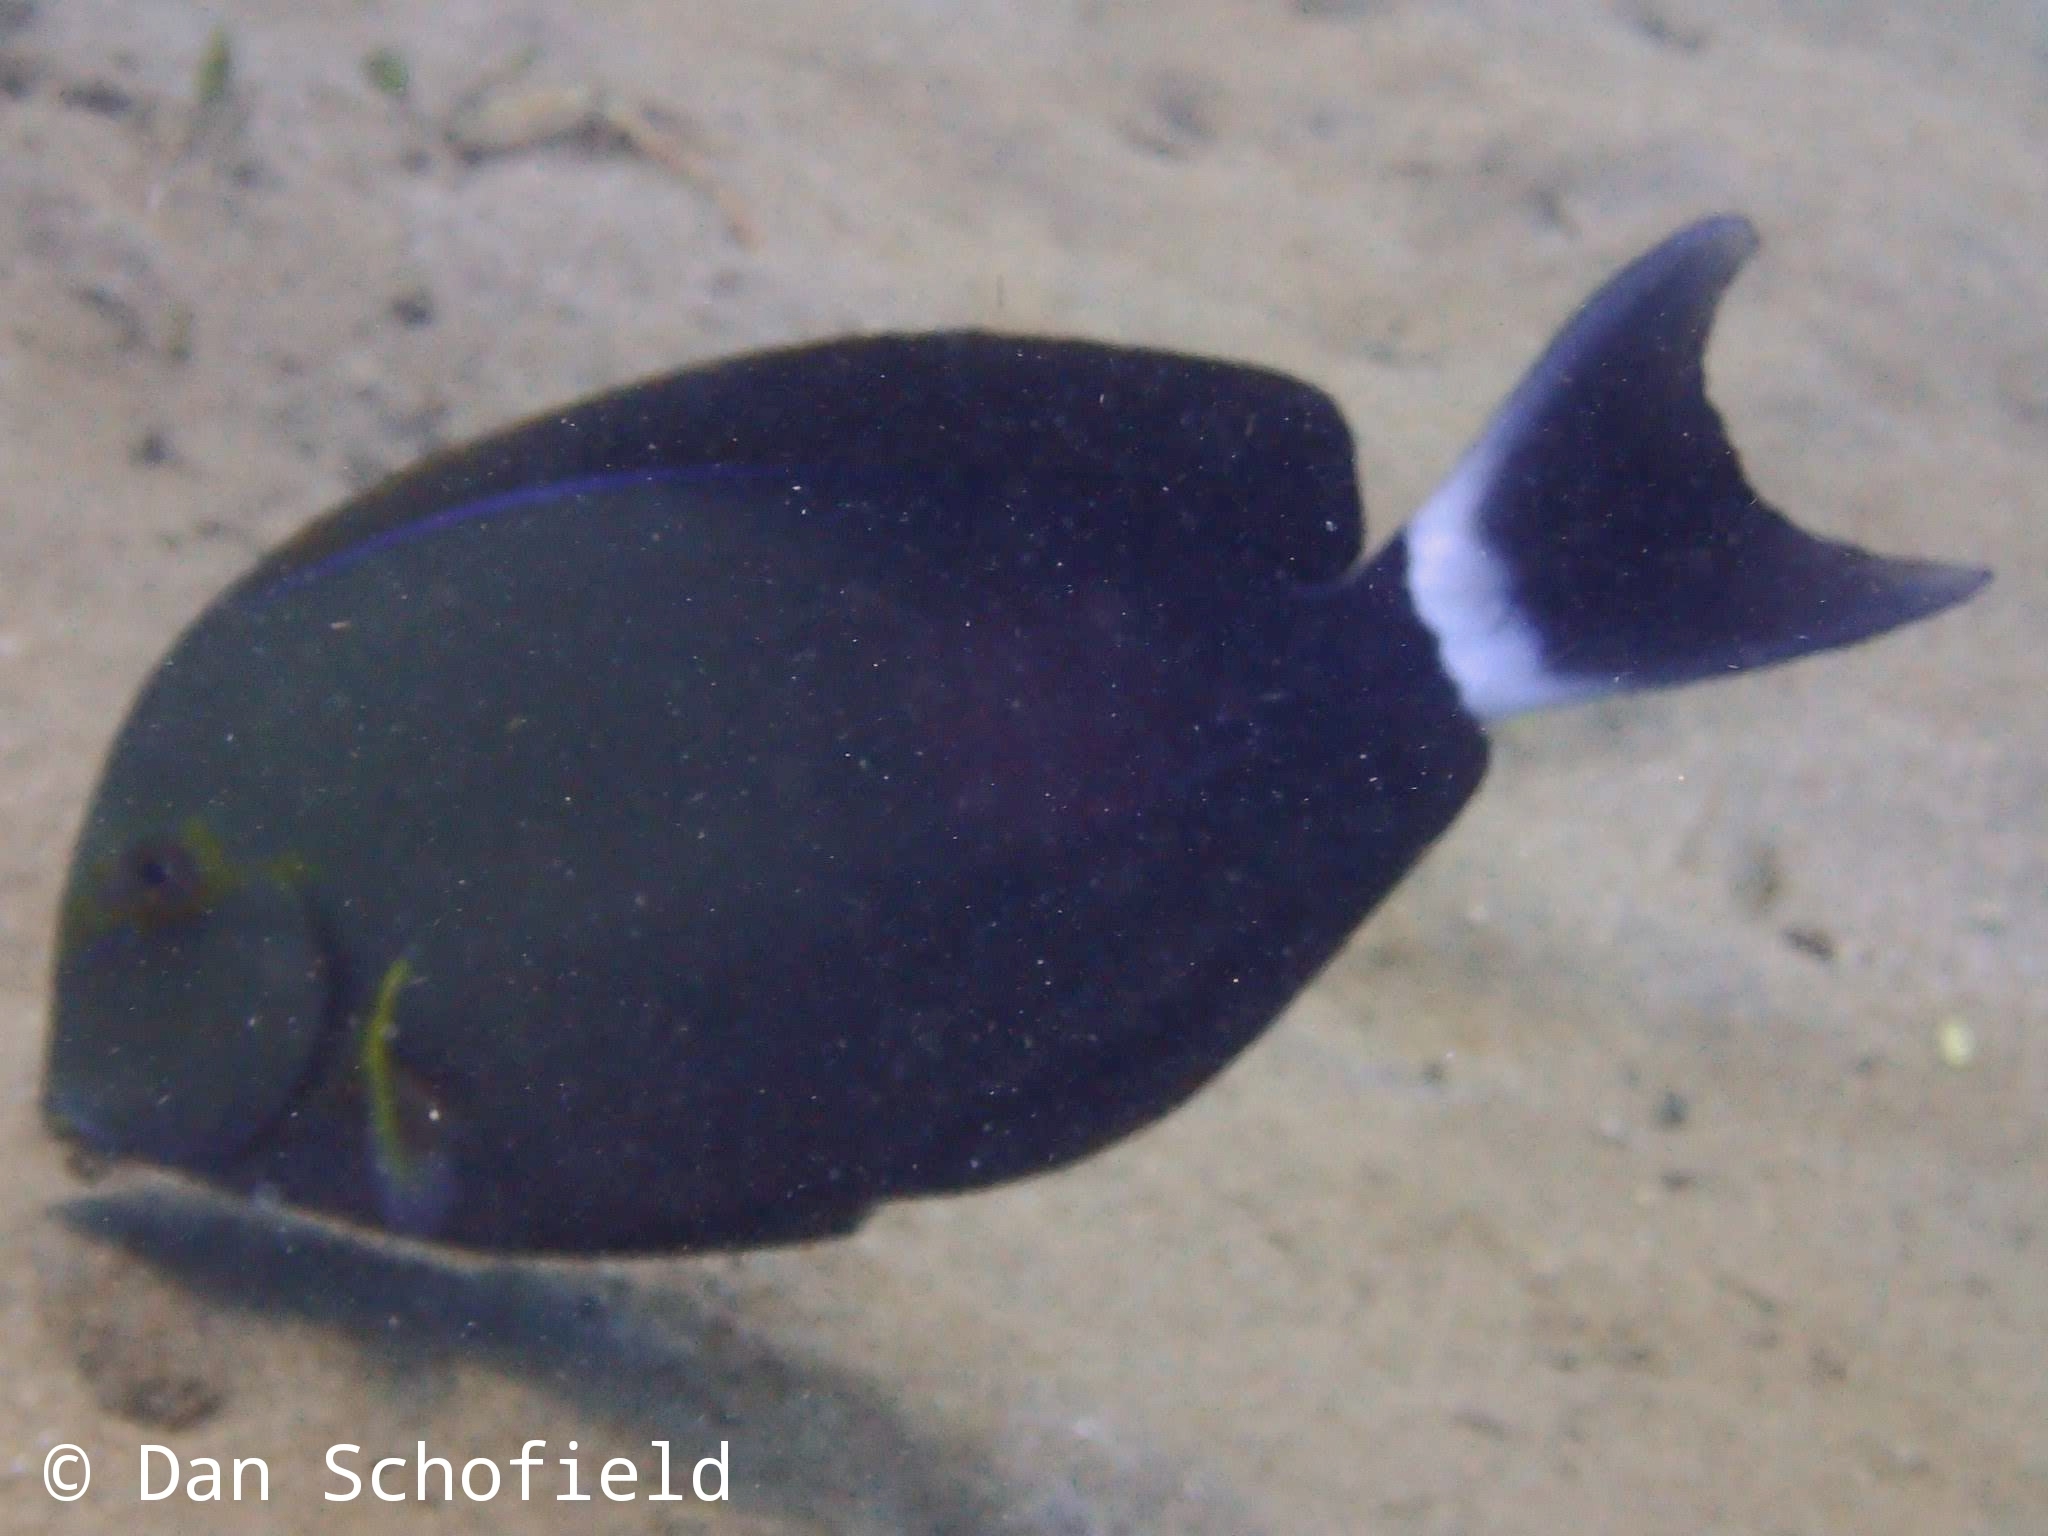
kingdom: Animalia
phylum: Chordata
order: Perciformes
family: Acanthuridae
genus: Acanthurus
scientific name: Acanthurus xanthopterus
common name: Cuvier's surgeonfish
